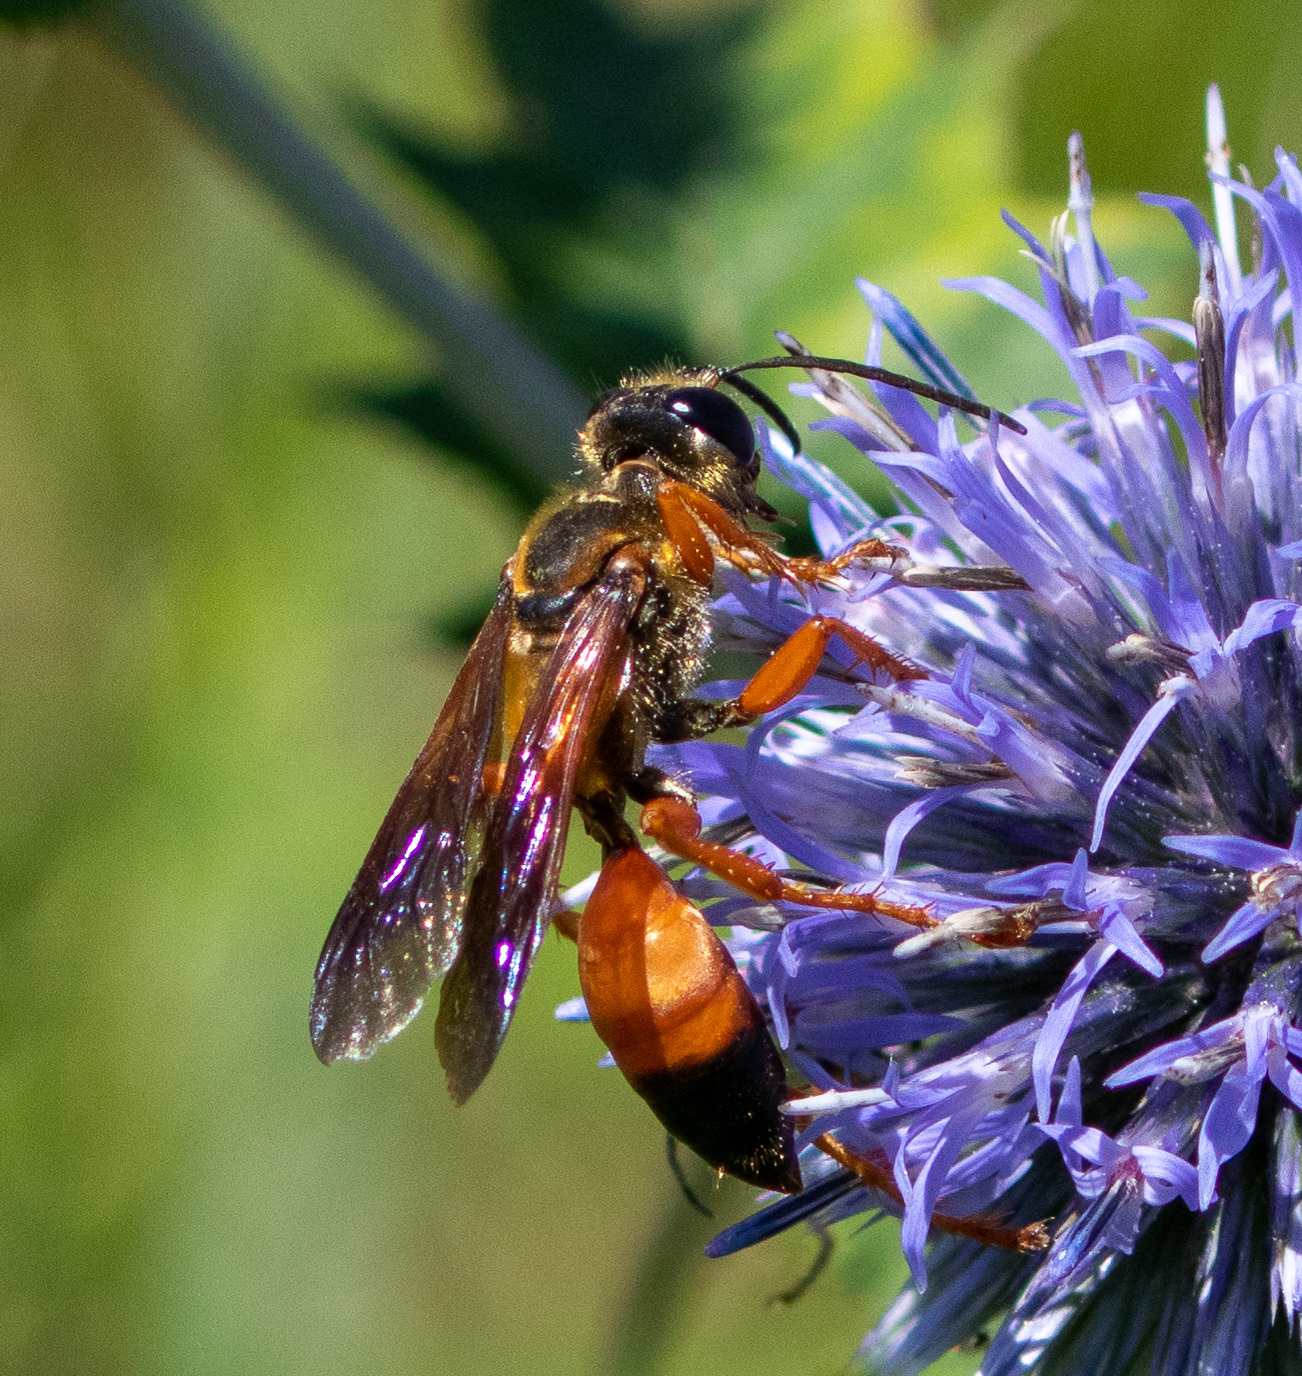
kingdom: Animalia
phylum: Arthropoda
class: Insecta
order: Hymenoptera
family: Sphecidae
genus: Sphex
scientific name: Sphex ichneumoneus
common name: Great golden digger wasp
